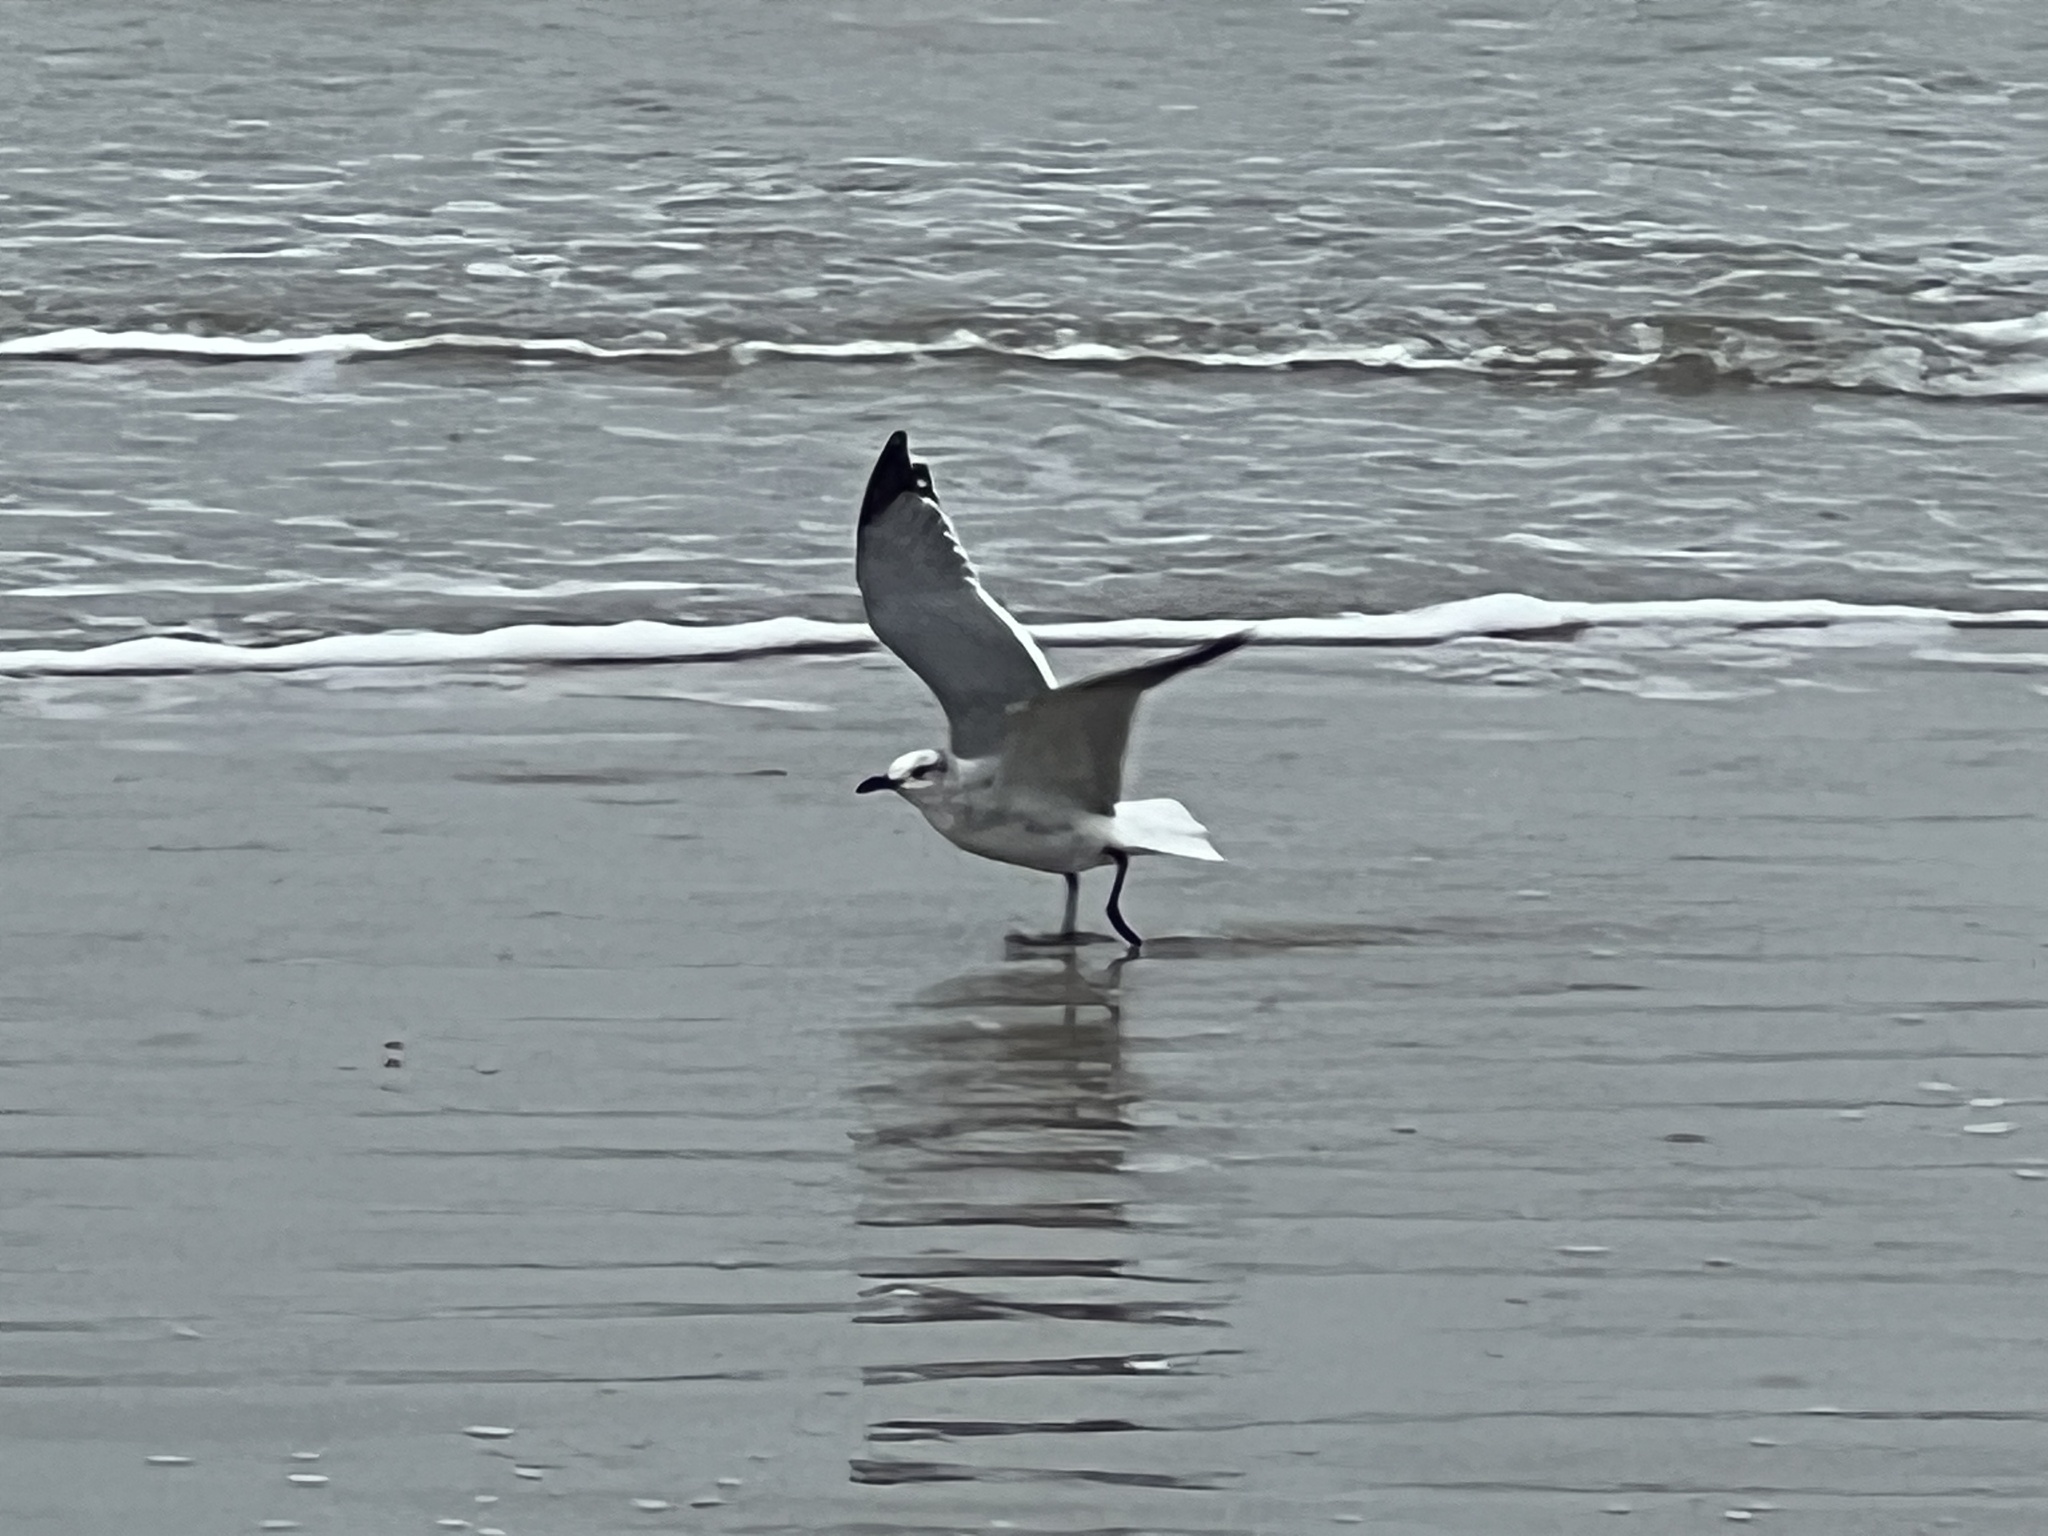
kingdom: Animalia
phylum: Chordata
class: Aves
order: Charadriiformes
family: Laridae
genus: Leucophaeus
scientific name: Leucophaeus atricilla
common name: Laughing gull
